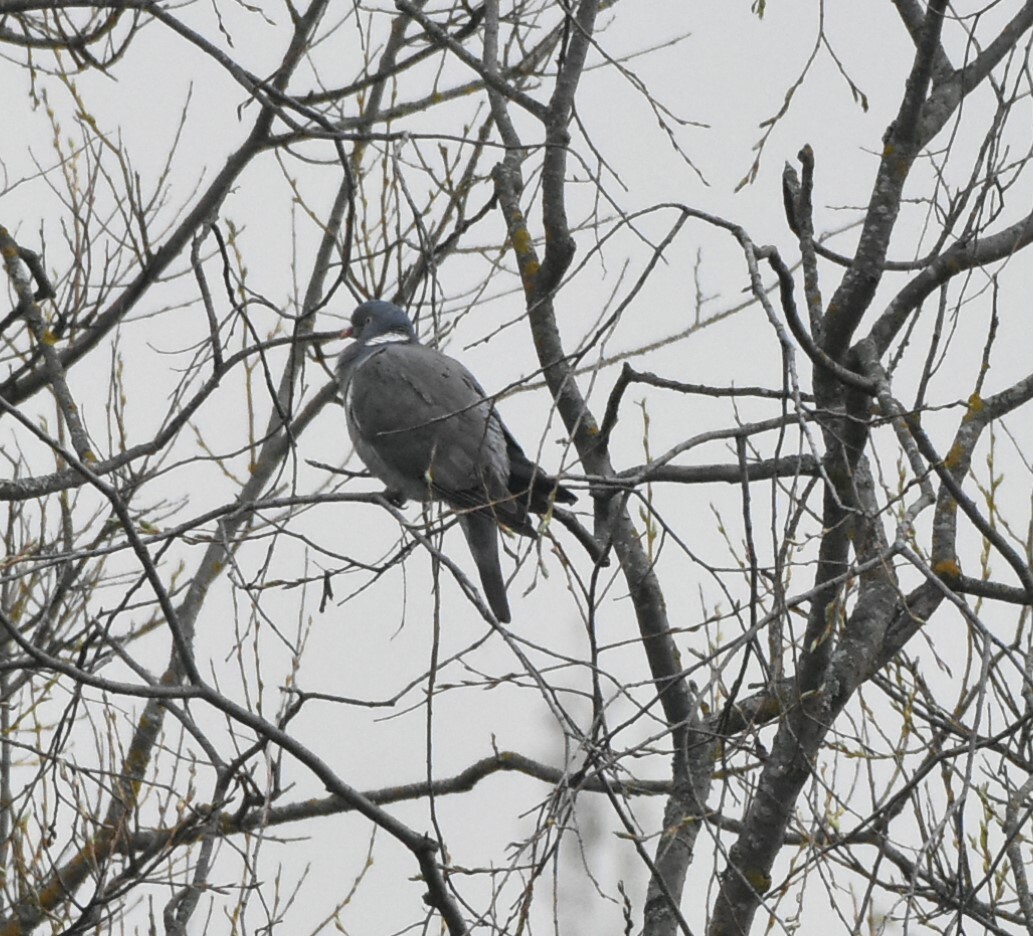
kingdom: Animalia
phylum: Chordata
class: Aves
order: Columbiformes
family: Columbidae
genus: Columba
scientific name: Columba palumbus
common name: Common wood pigeon
